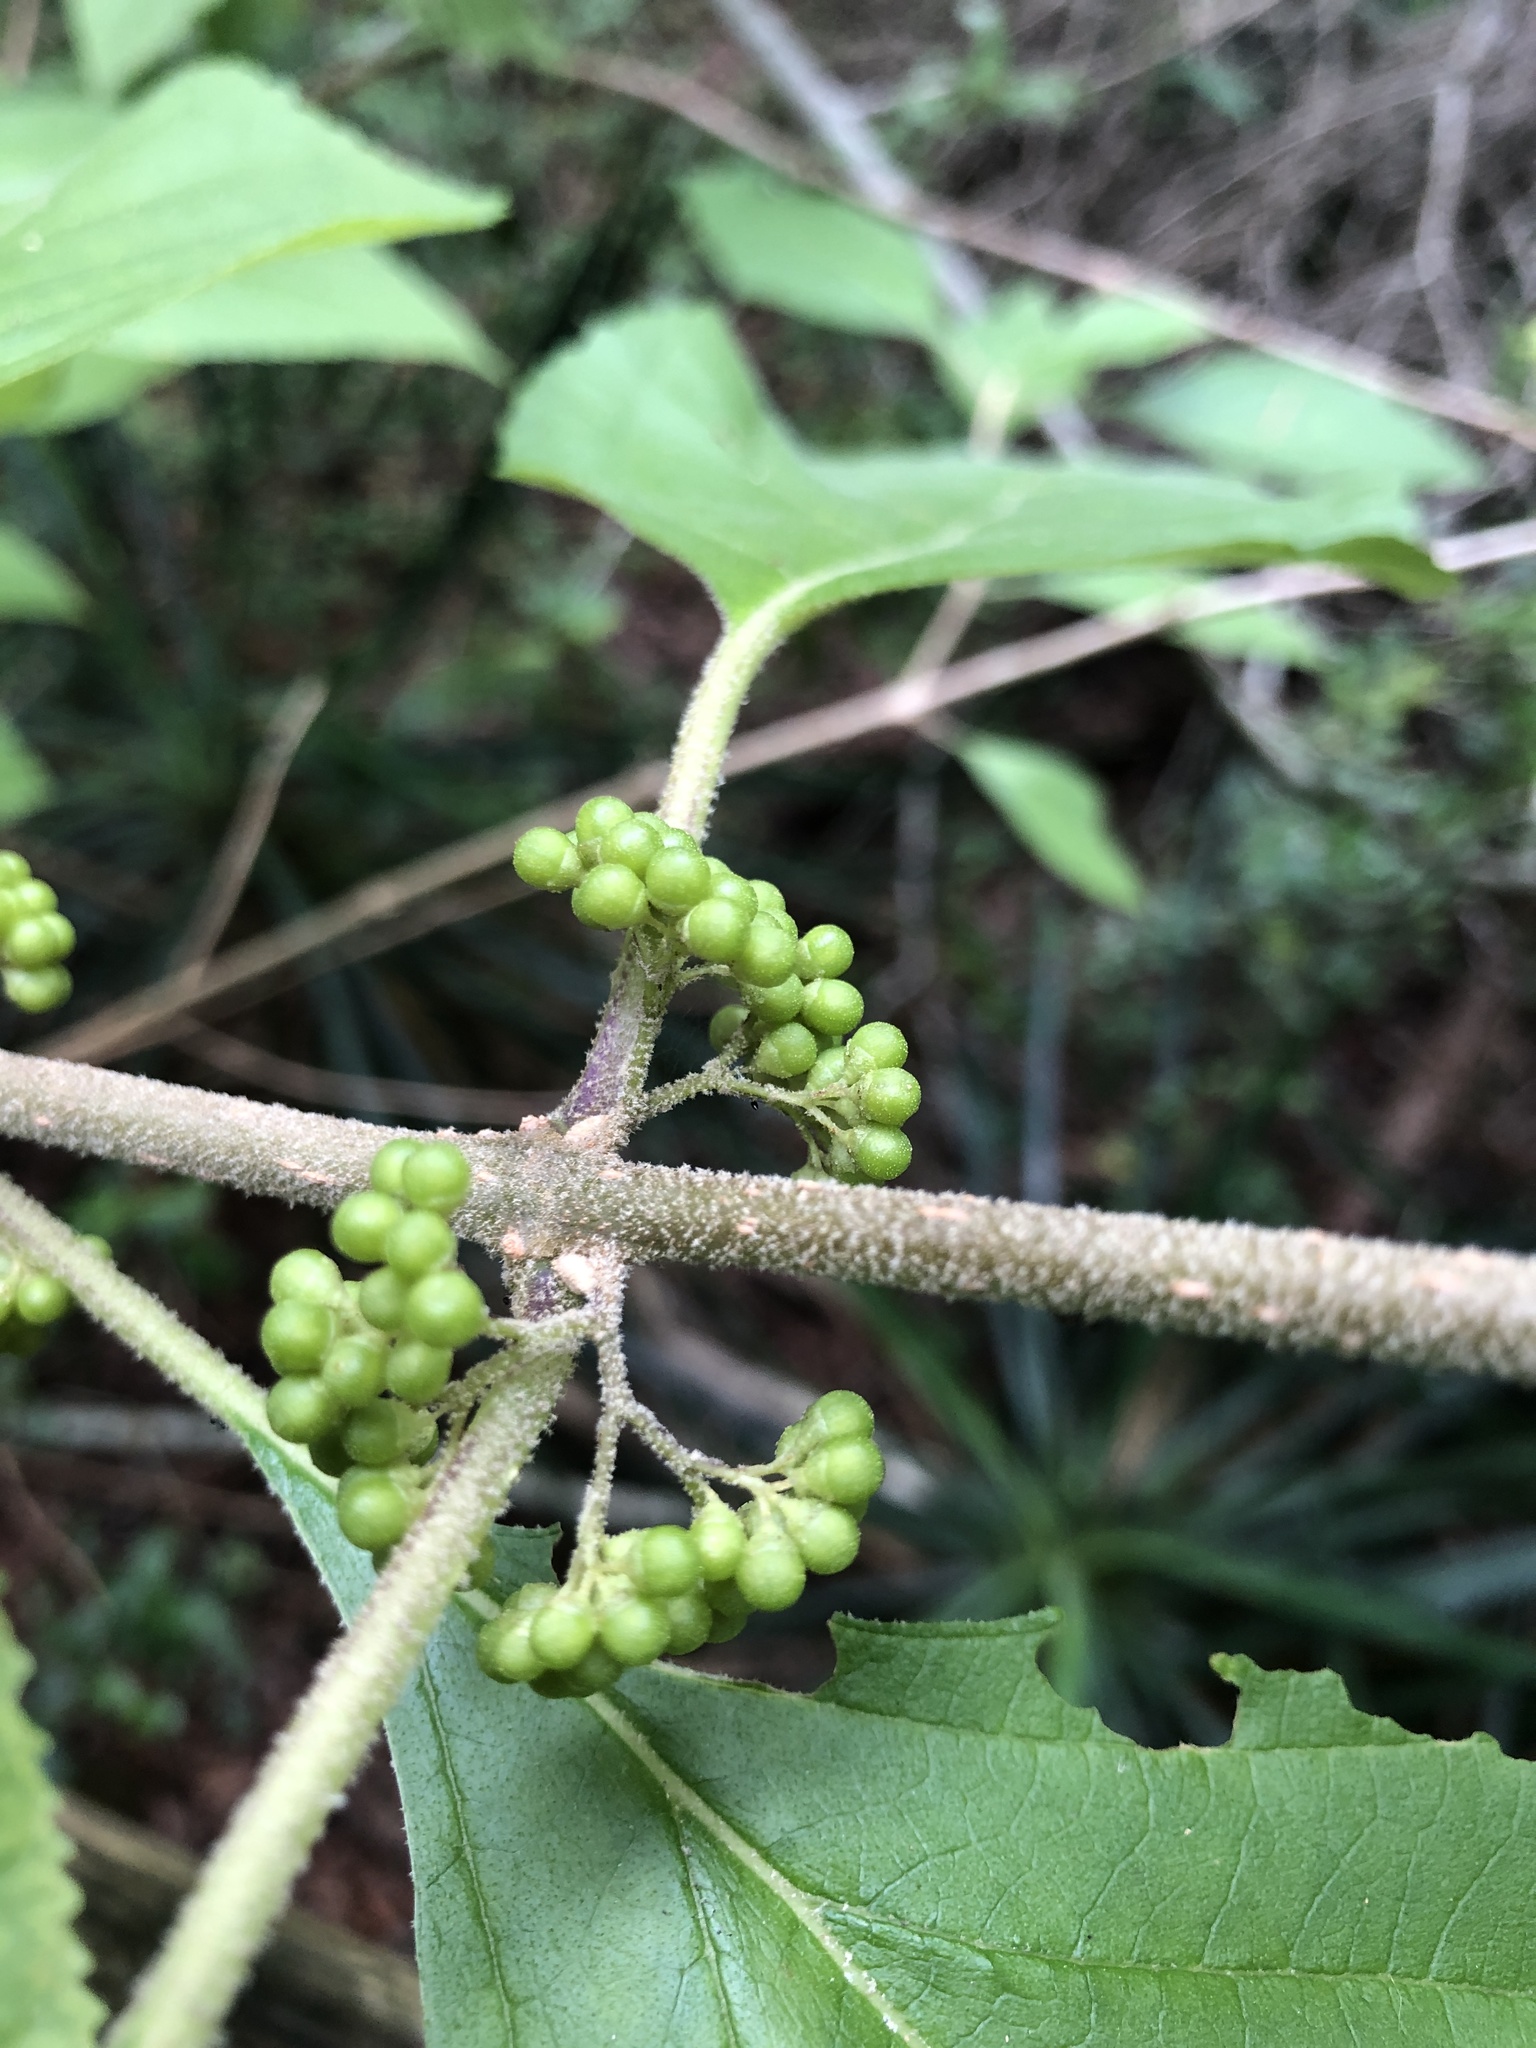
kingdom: Plantae
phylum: Tracheophyta
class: Magnoliopsida
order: Lamiales
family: Lamiaceae
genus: Callicarpa
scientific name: Callicarpa americana
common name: American beautyberry
